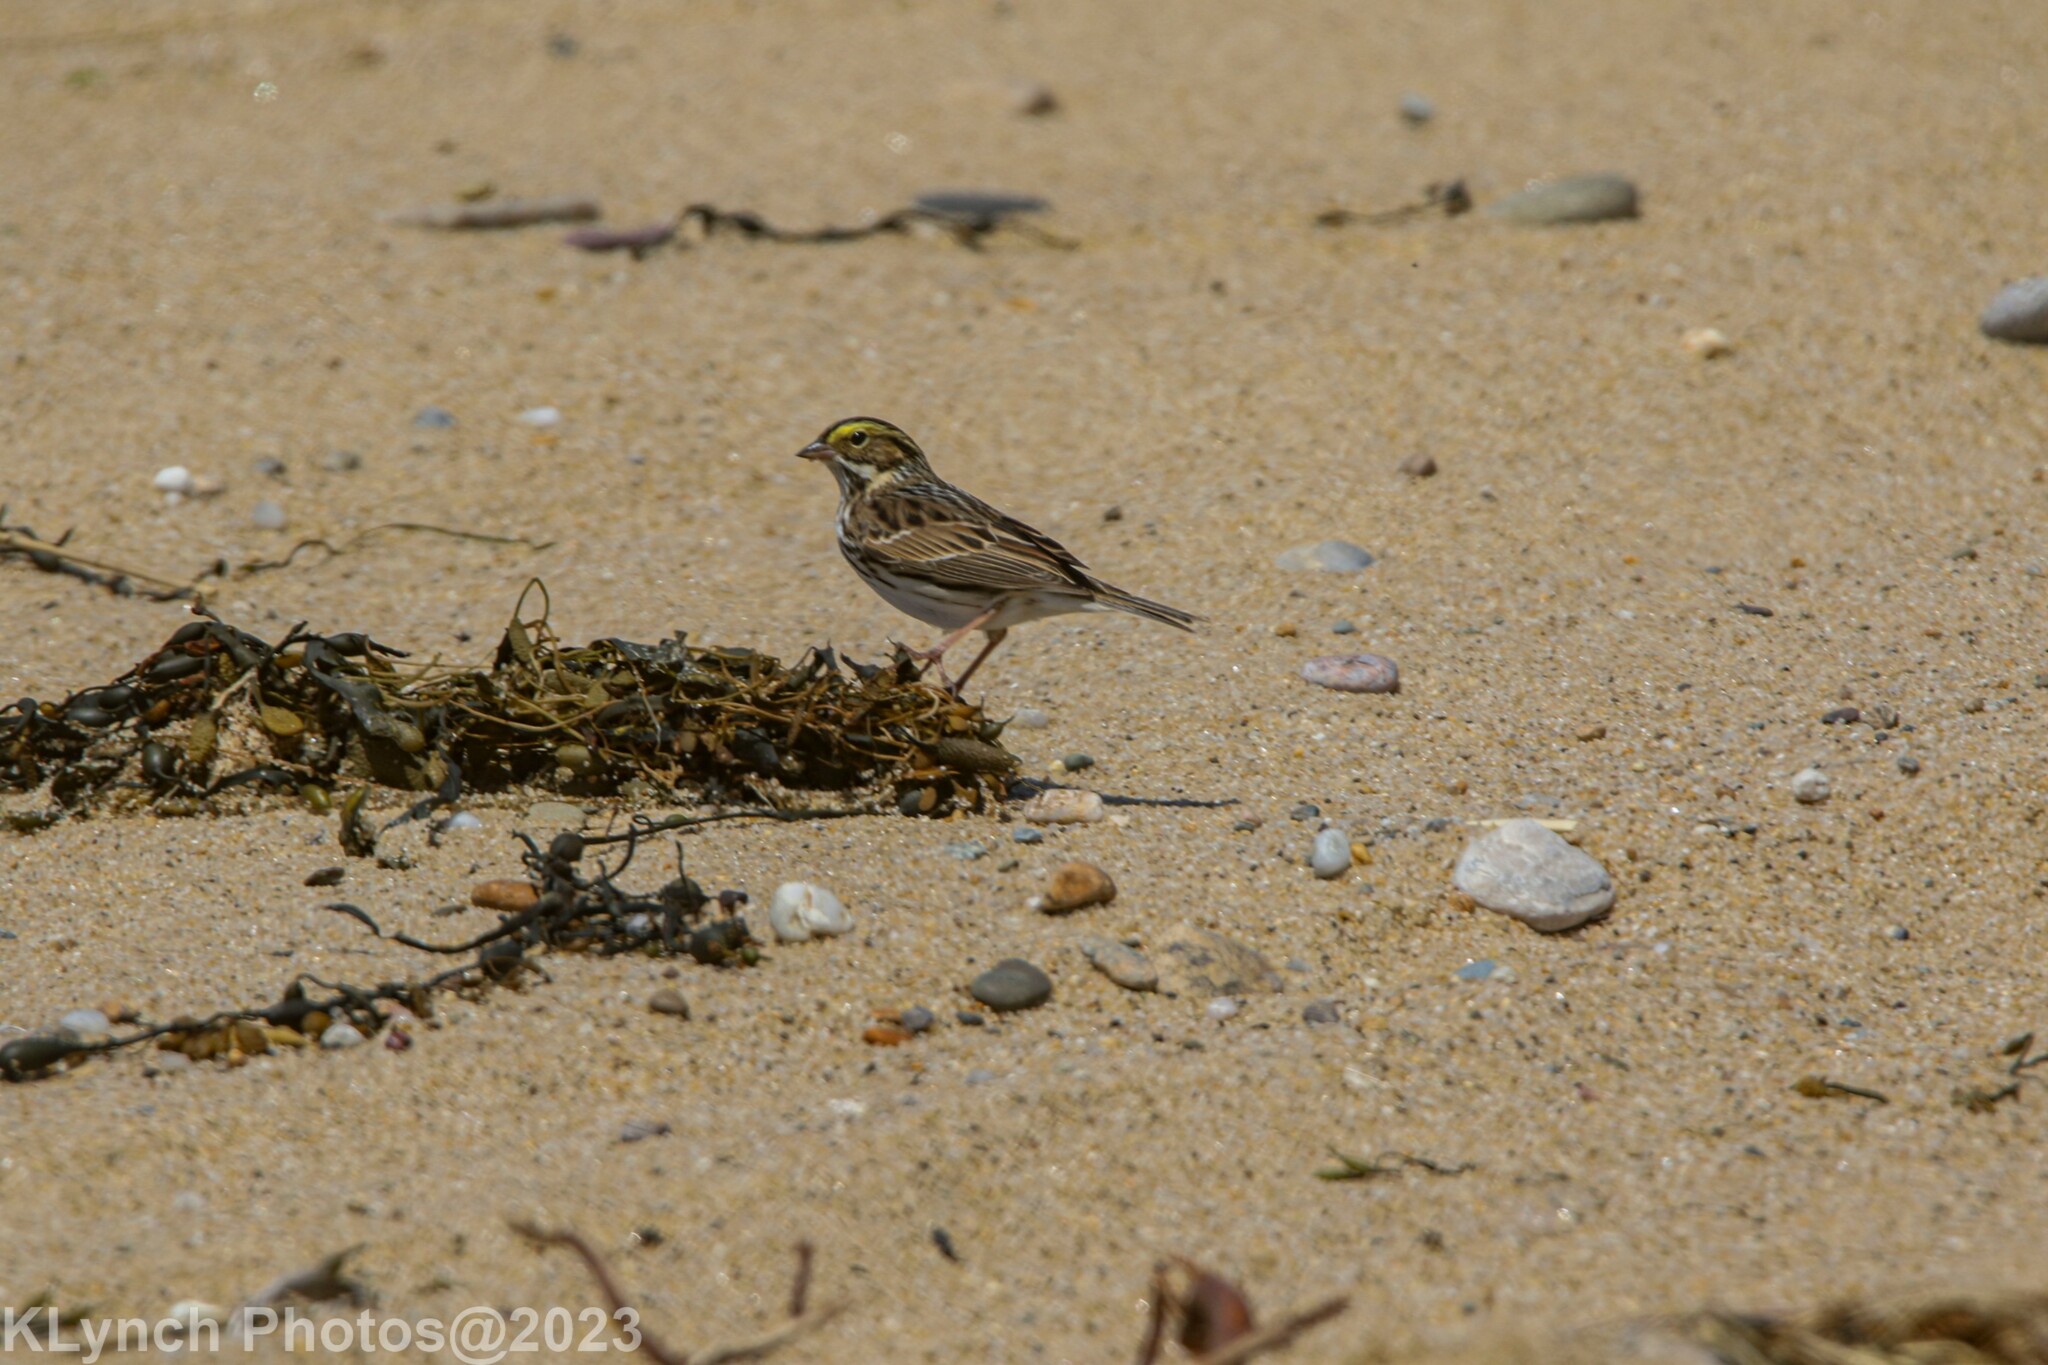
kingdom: Animalia
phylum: Chordata
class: Aves
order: Passeriformes
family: Passerellidae
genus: Passerculus
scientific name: Passerculus sandwichensis
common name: Savannah sparrow
